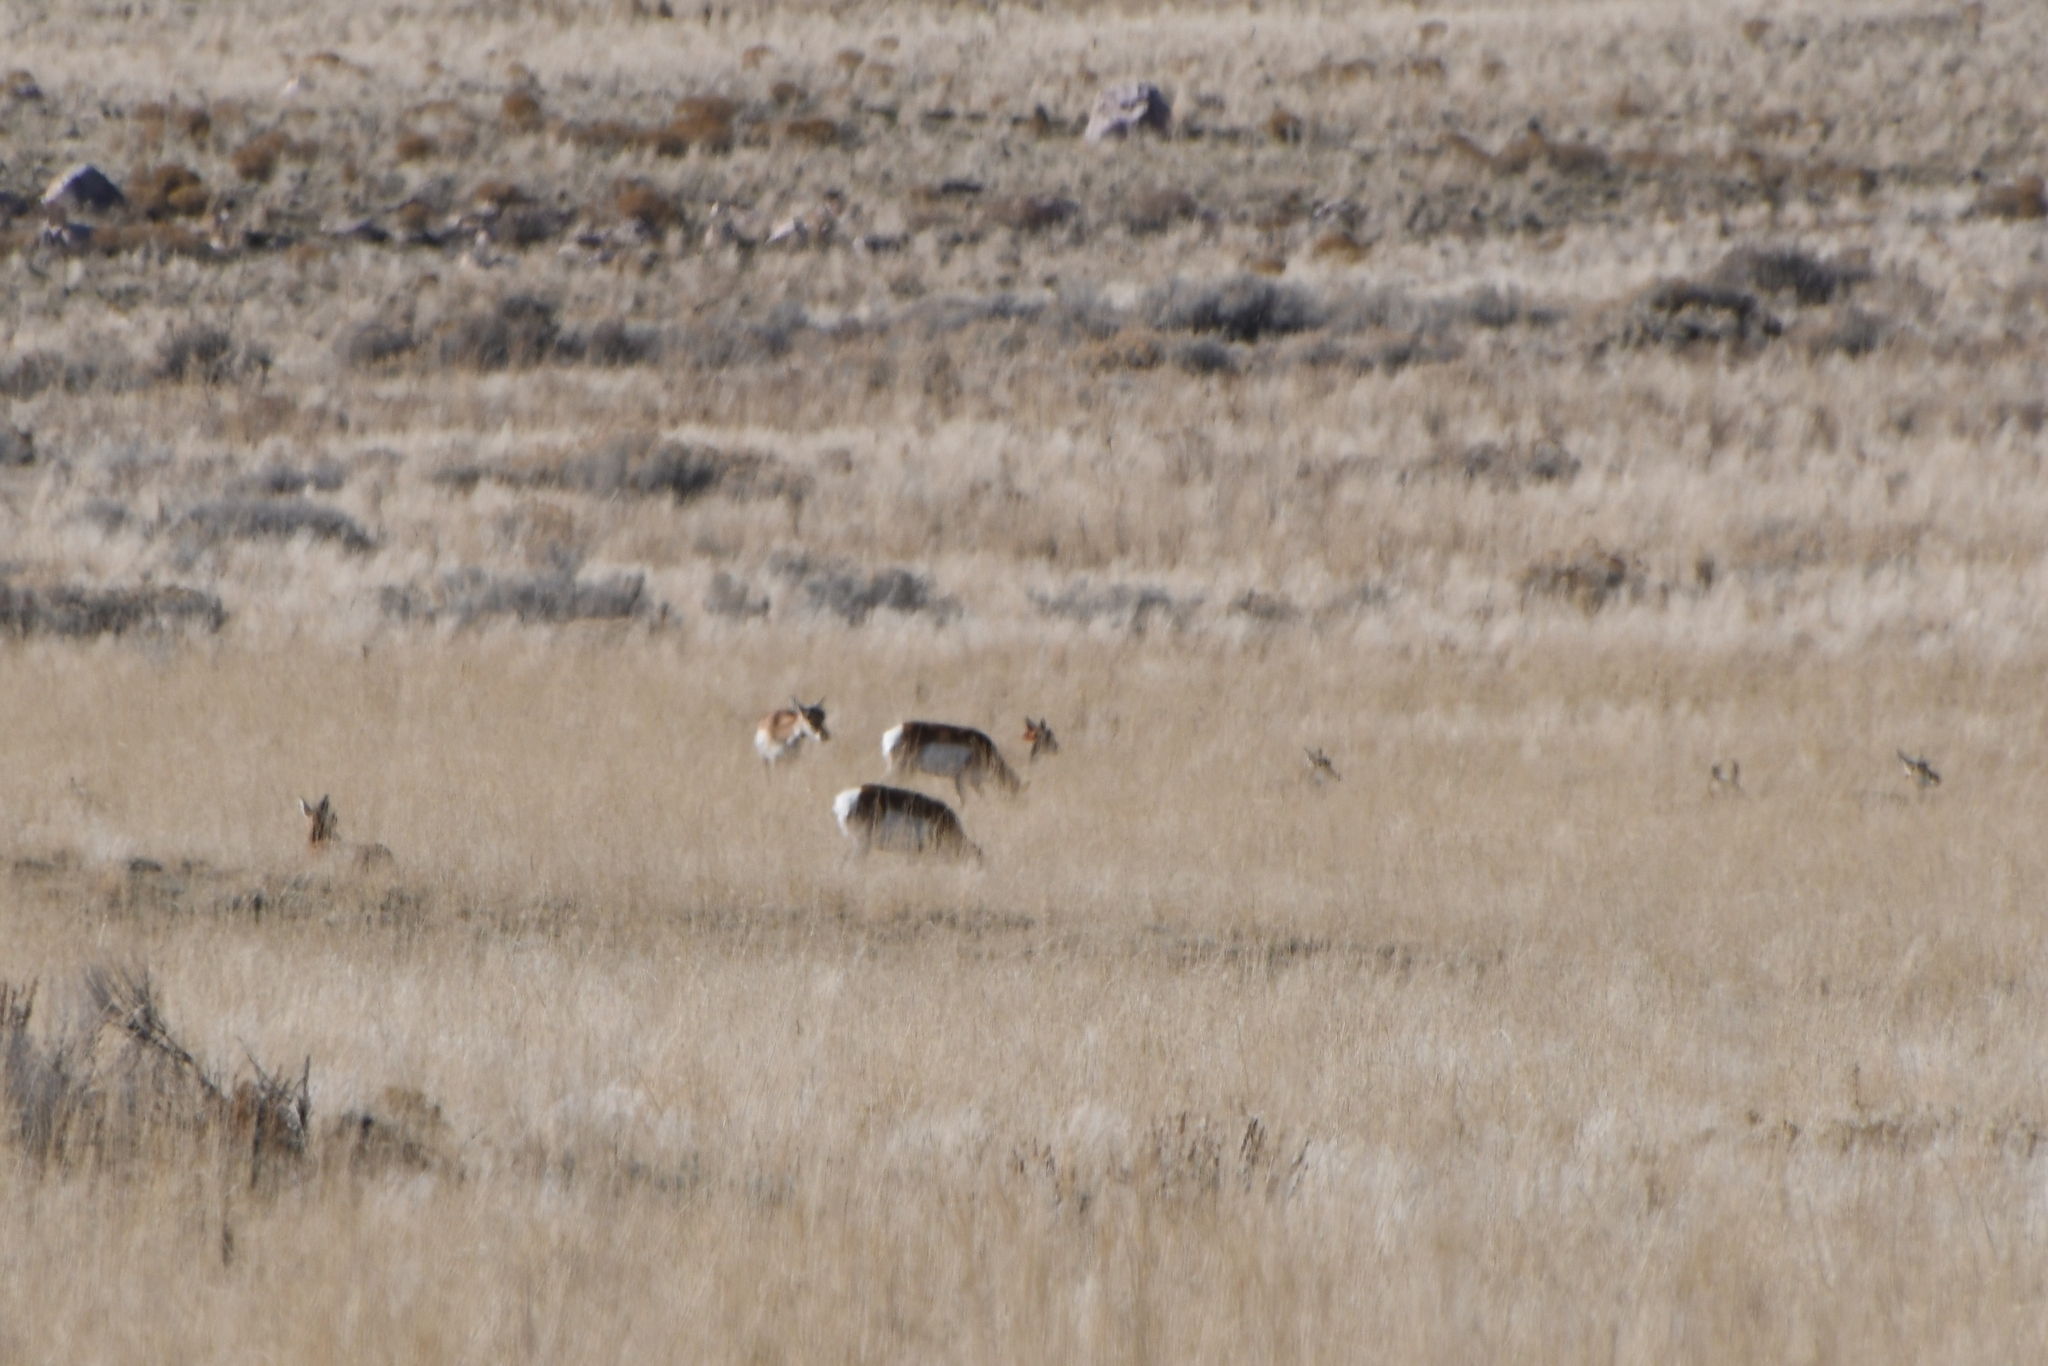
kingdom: Animalia
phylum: Chordata
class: Mammalia
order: Artiodactyla
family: Antilocapridae
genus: Antilocapra
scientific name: Antilocapra americana
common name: Pronghorn
